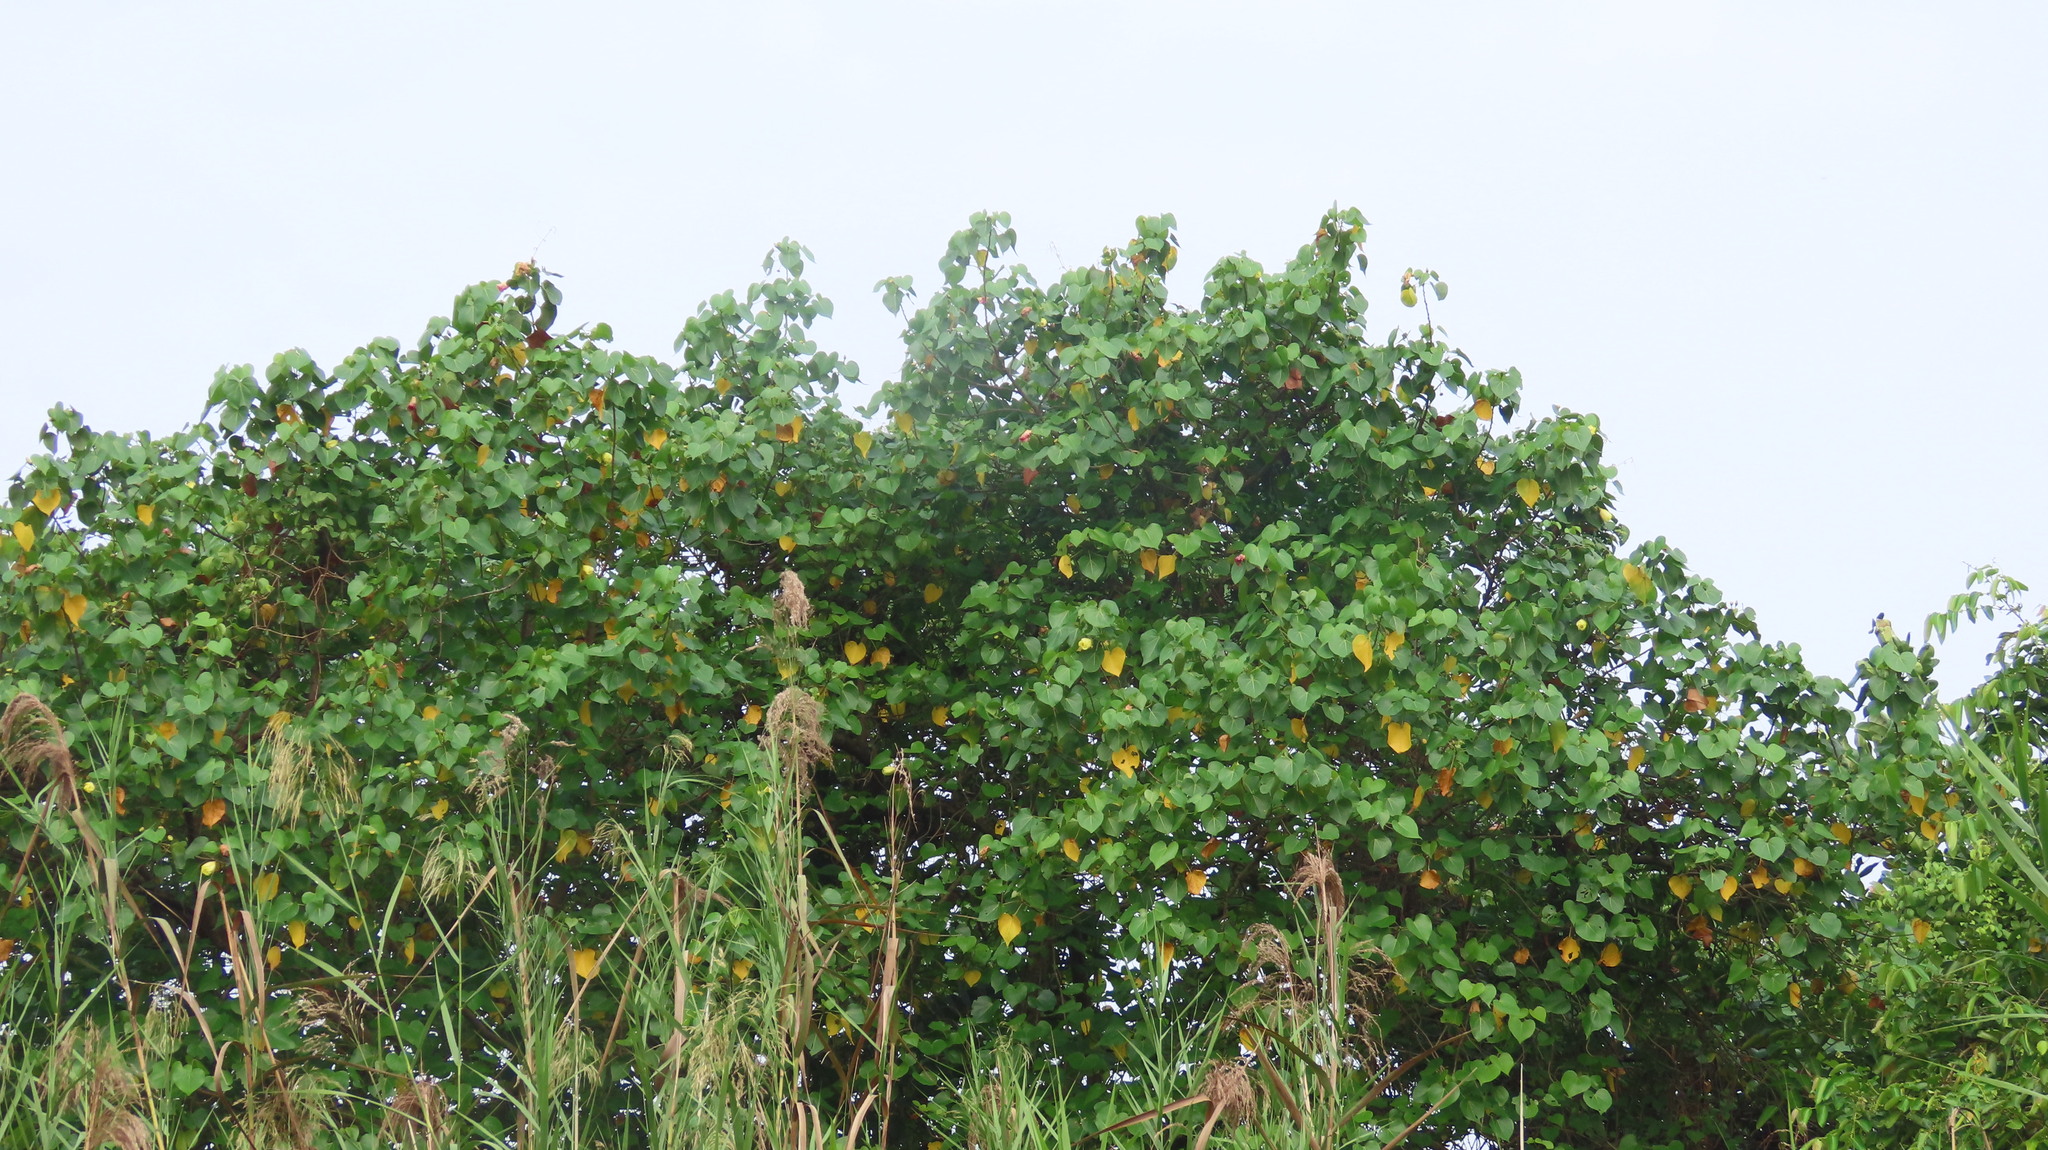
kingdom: Plantae
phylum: Tracheophyta
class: Magnoliopsida
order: Malvales
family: Malvaceae
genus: Thespesia
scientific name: Thespesia populnea
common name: Seaside mahoe
